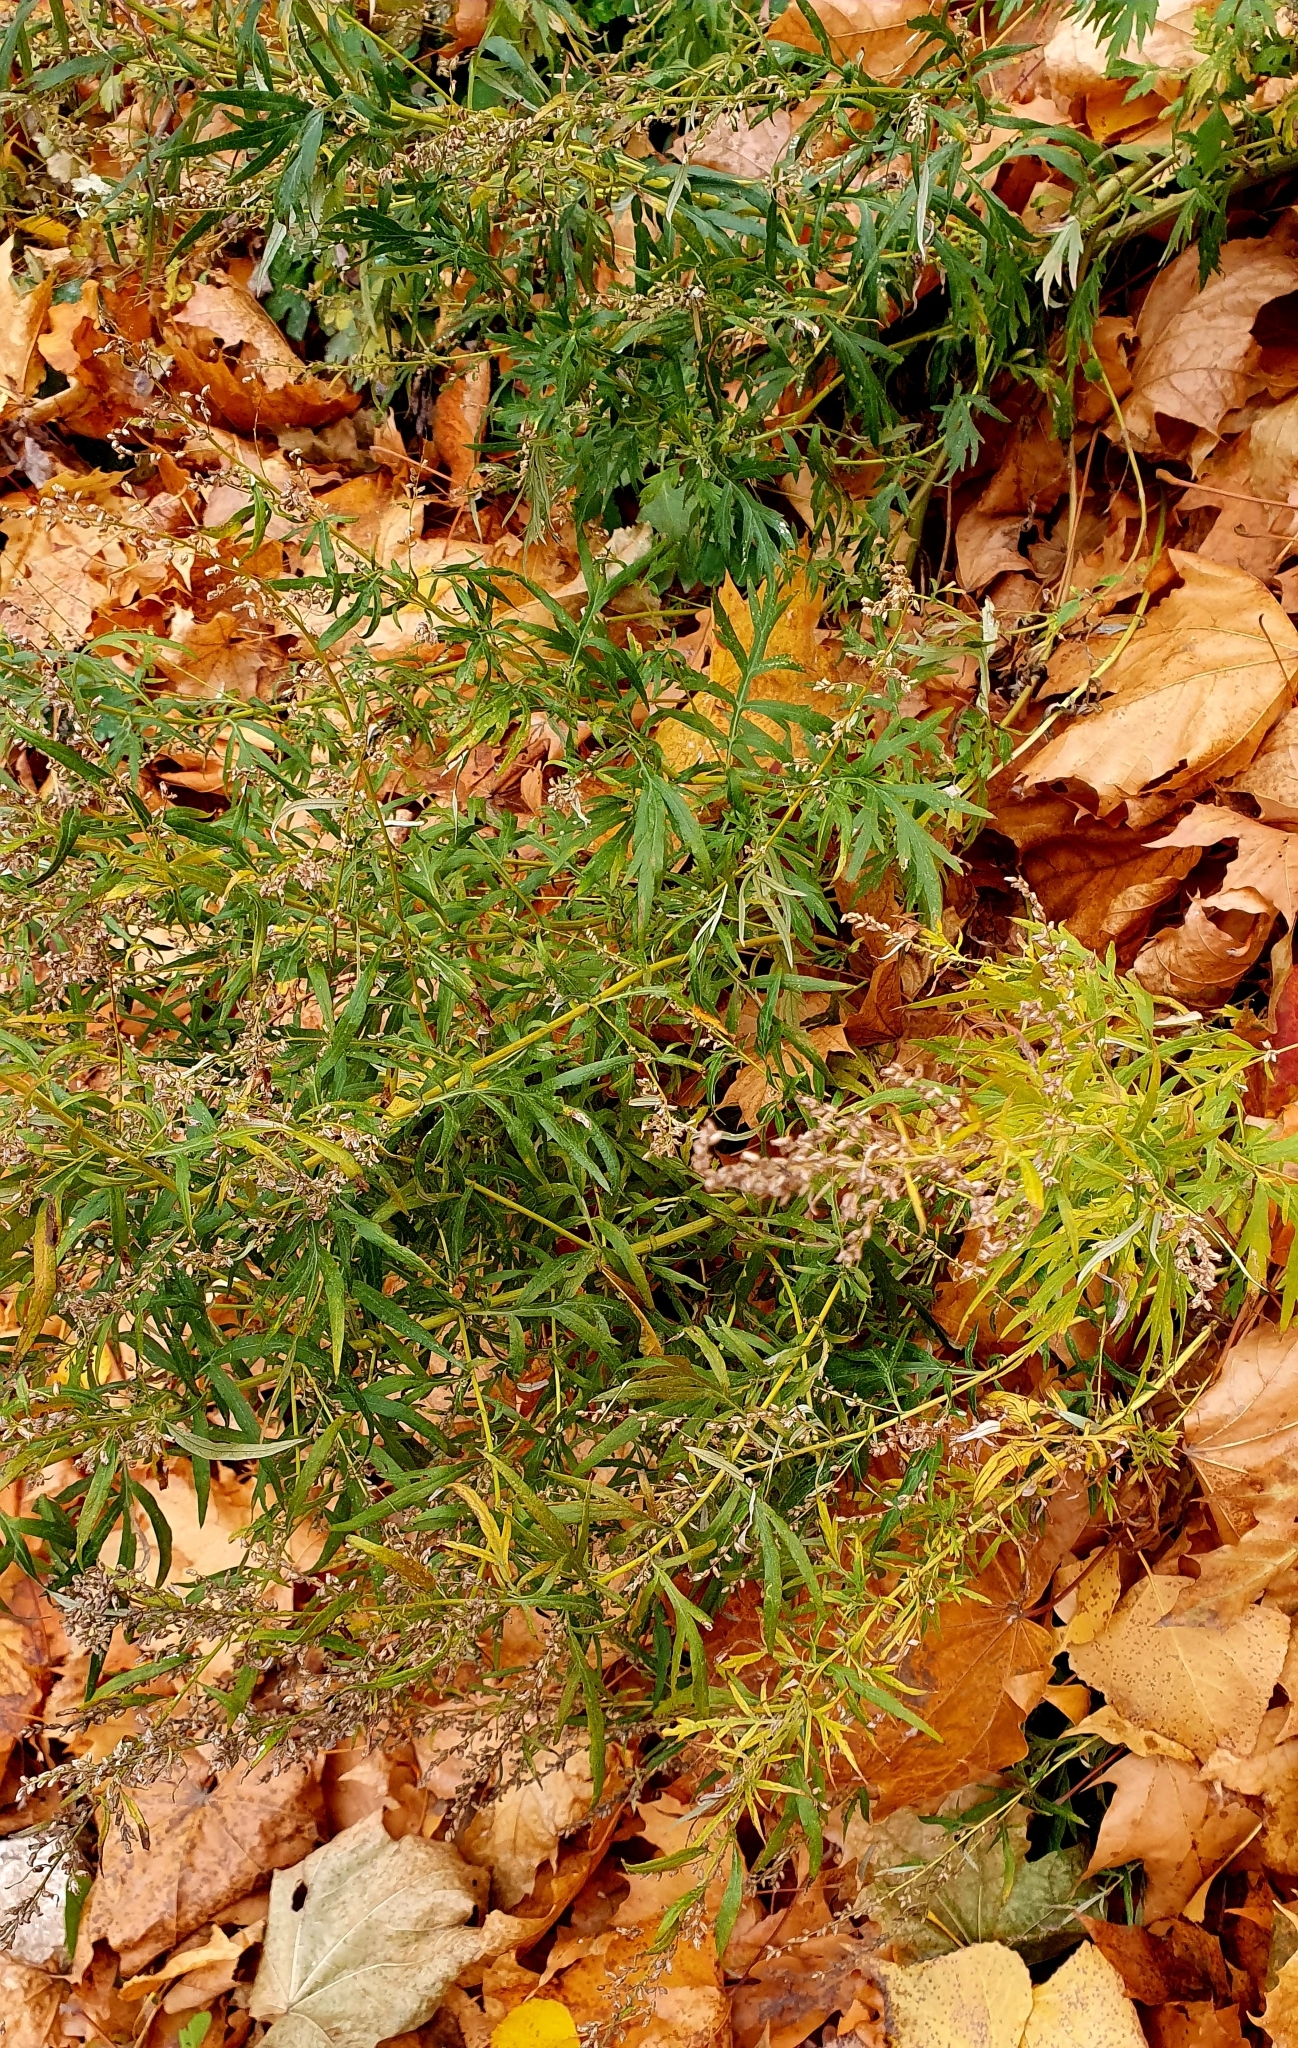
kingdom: Plantae
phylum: Tracheophyta
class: Magnoliopsida
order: Asterales
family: Asteraceae
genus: Artemisia
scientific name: Artemisia vulgaris
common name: Mugwort
